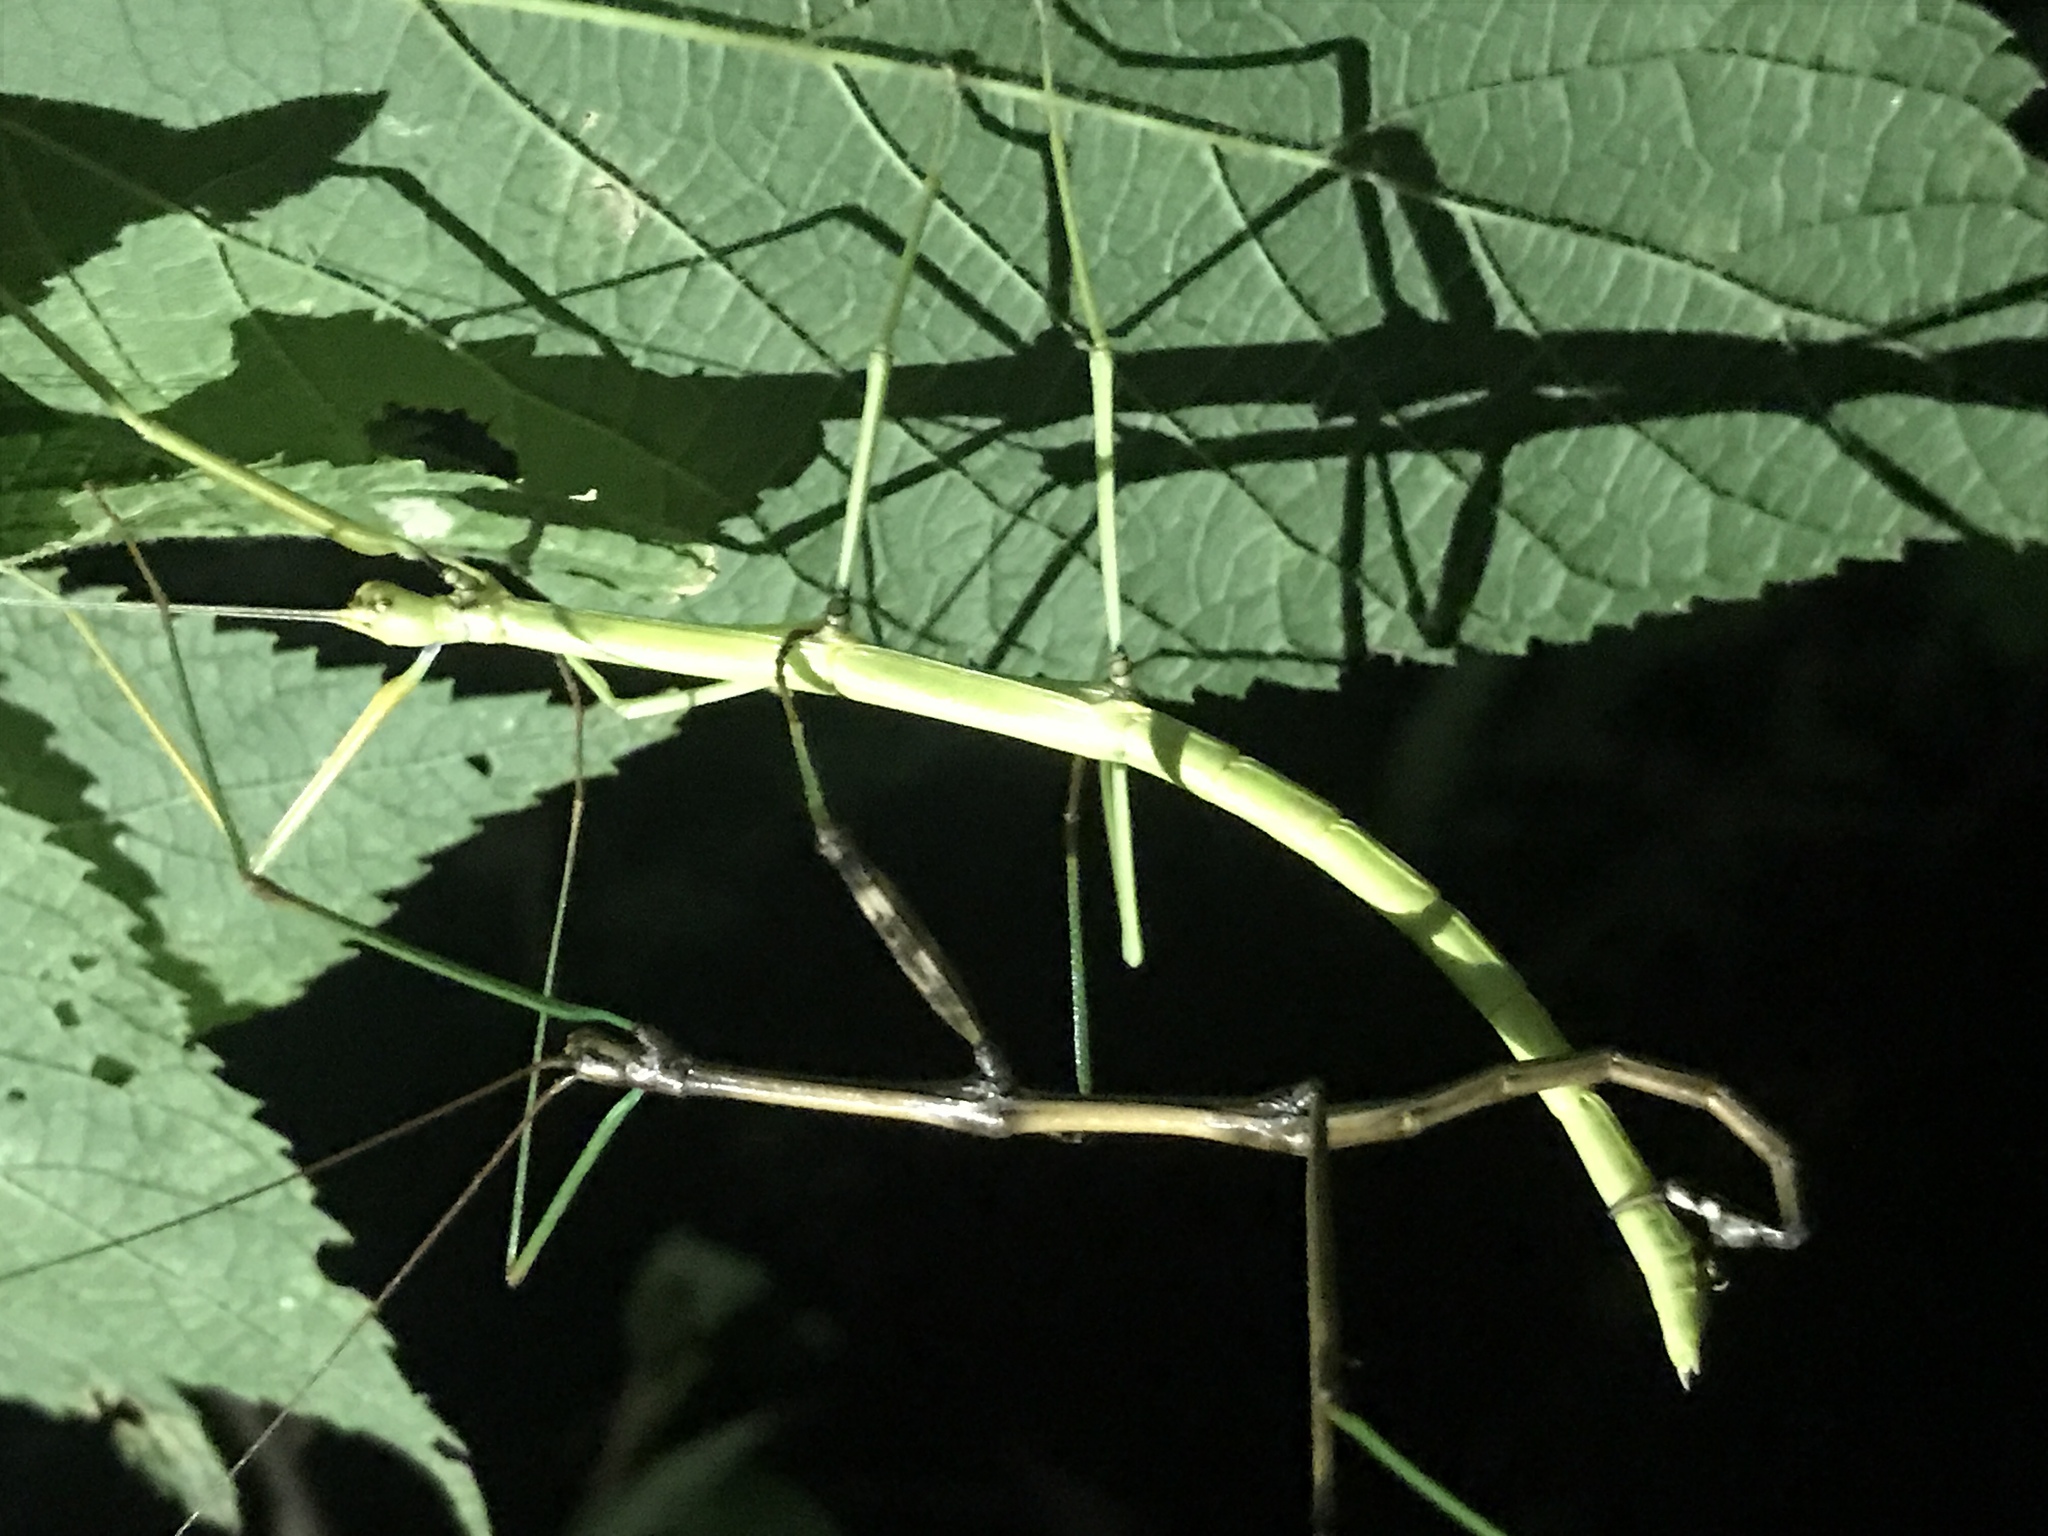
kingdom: Animalia
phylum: Arthropoda
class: Insecta
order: Phasmida
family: Diapheromeridae
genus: Diapheromera
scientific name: Diapheromera femorata
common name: Common american walkingstick
